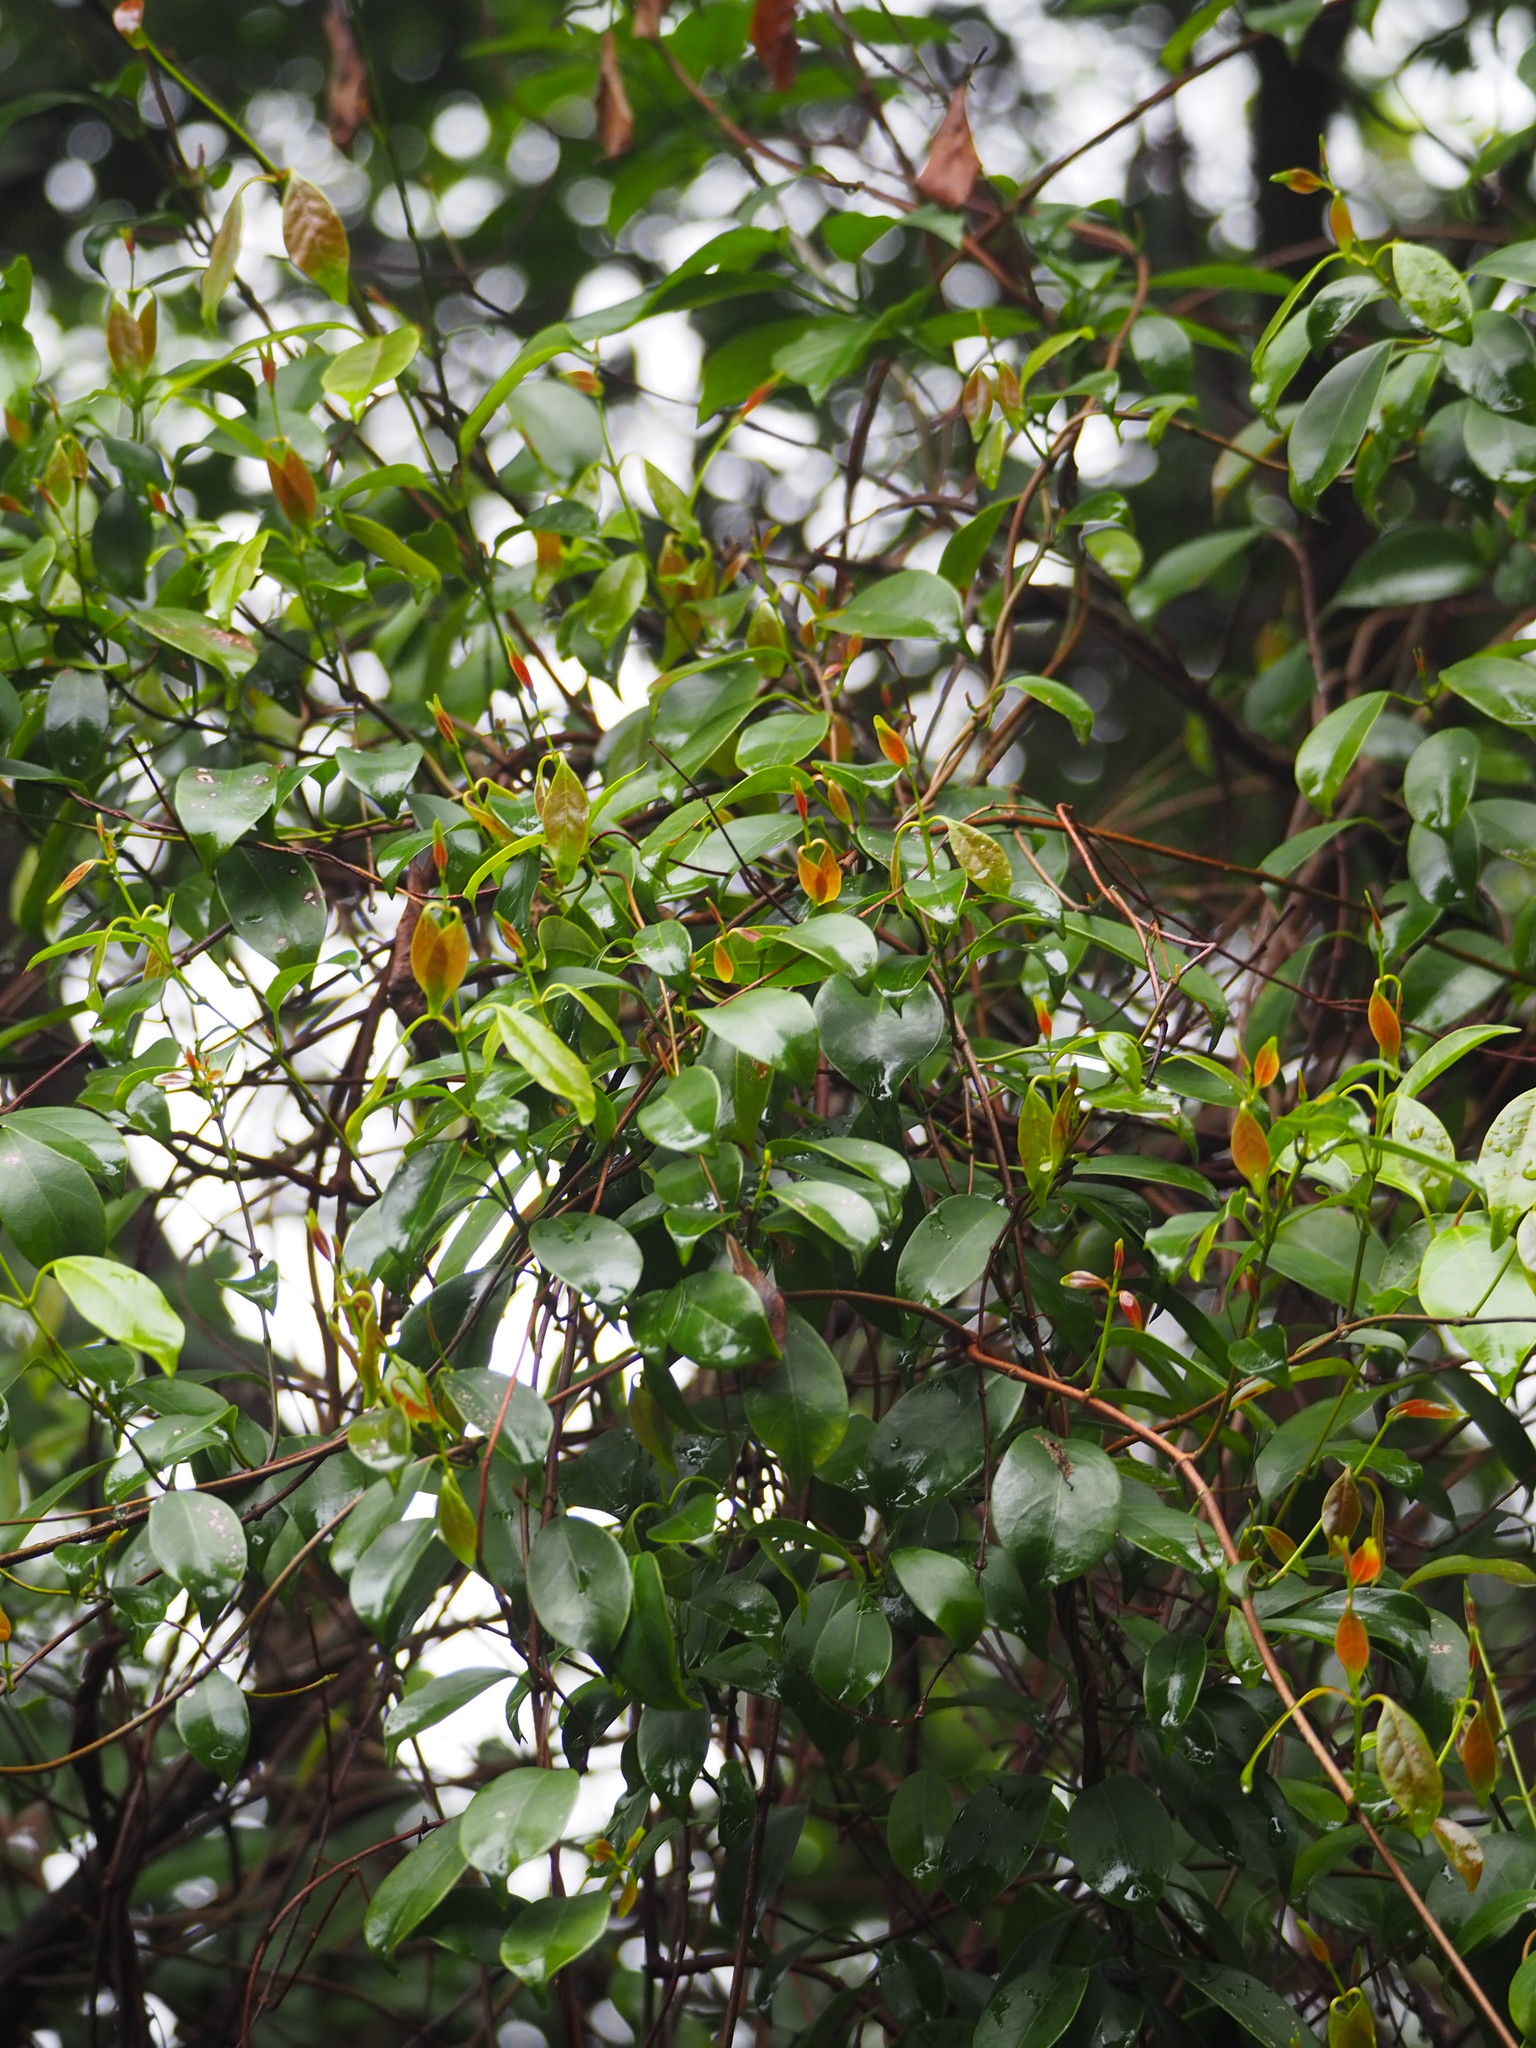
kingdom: Plantae
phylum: Tracheophyta
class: Magnoliopsida
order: Gentianales
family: Apocynaceae
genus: Urceola
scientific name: Urceola rosea
